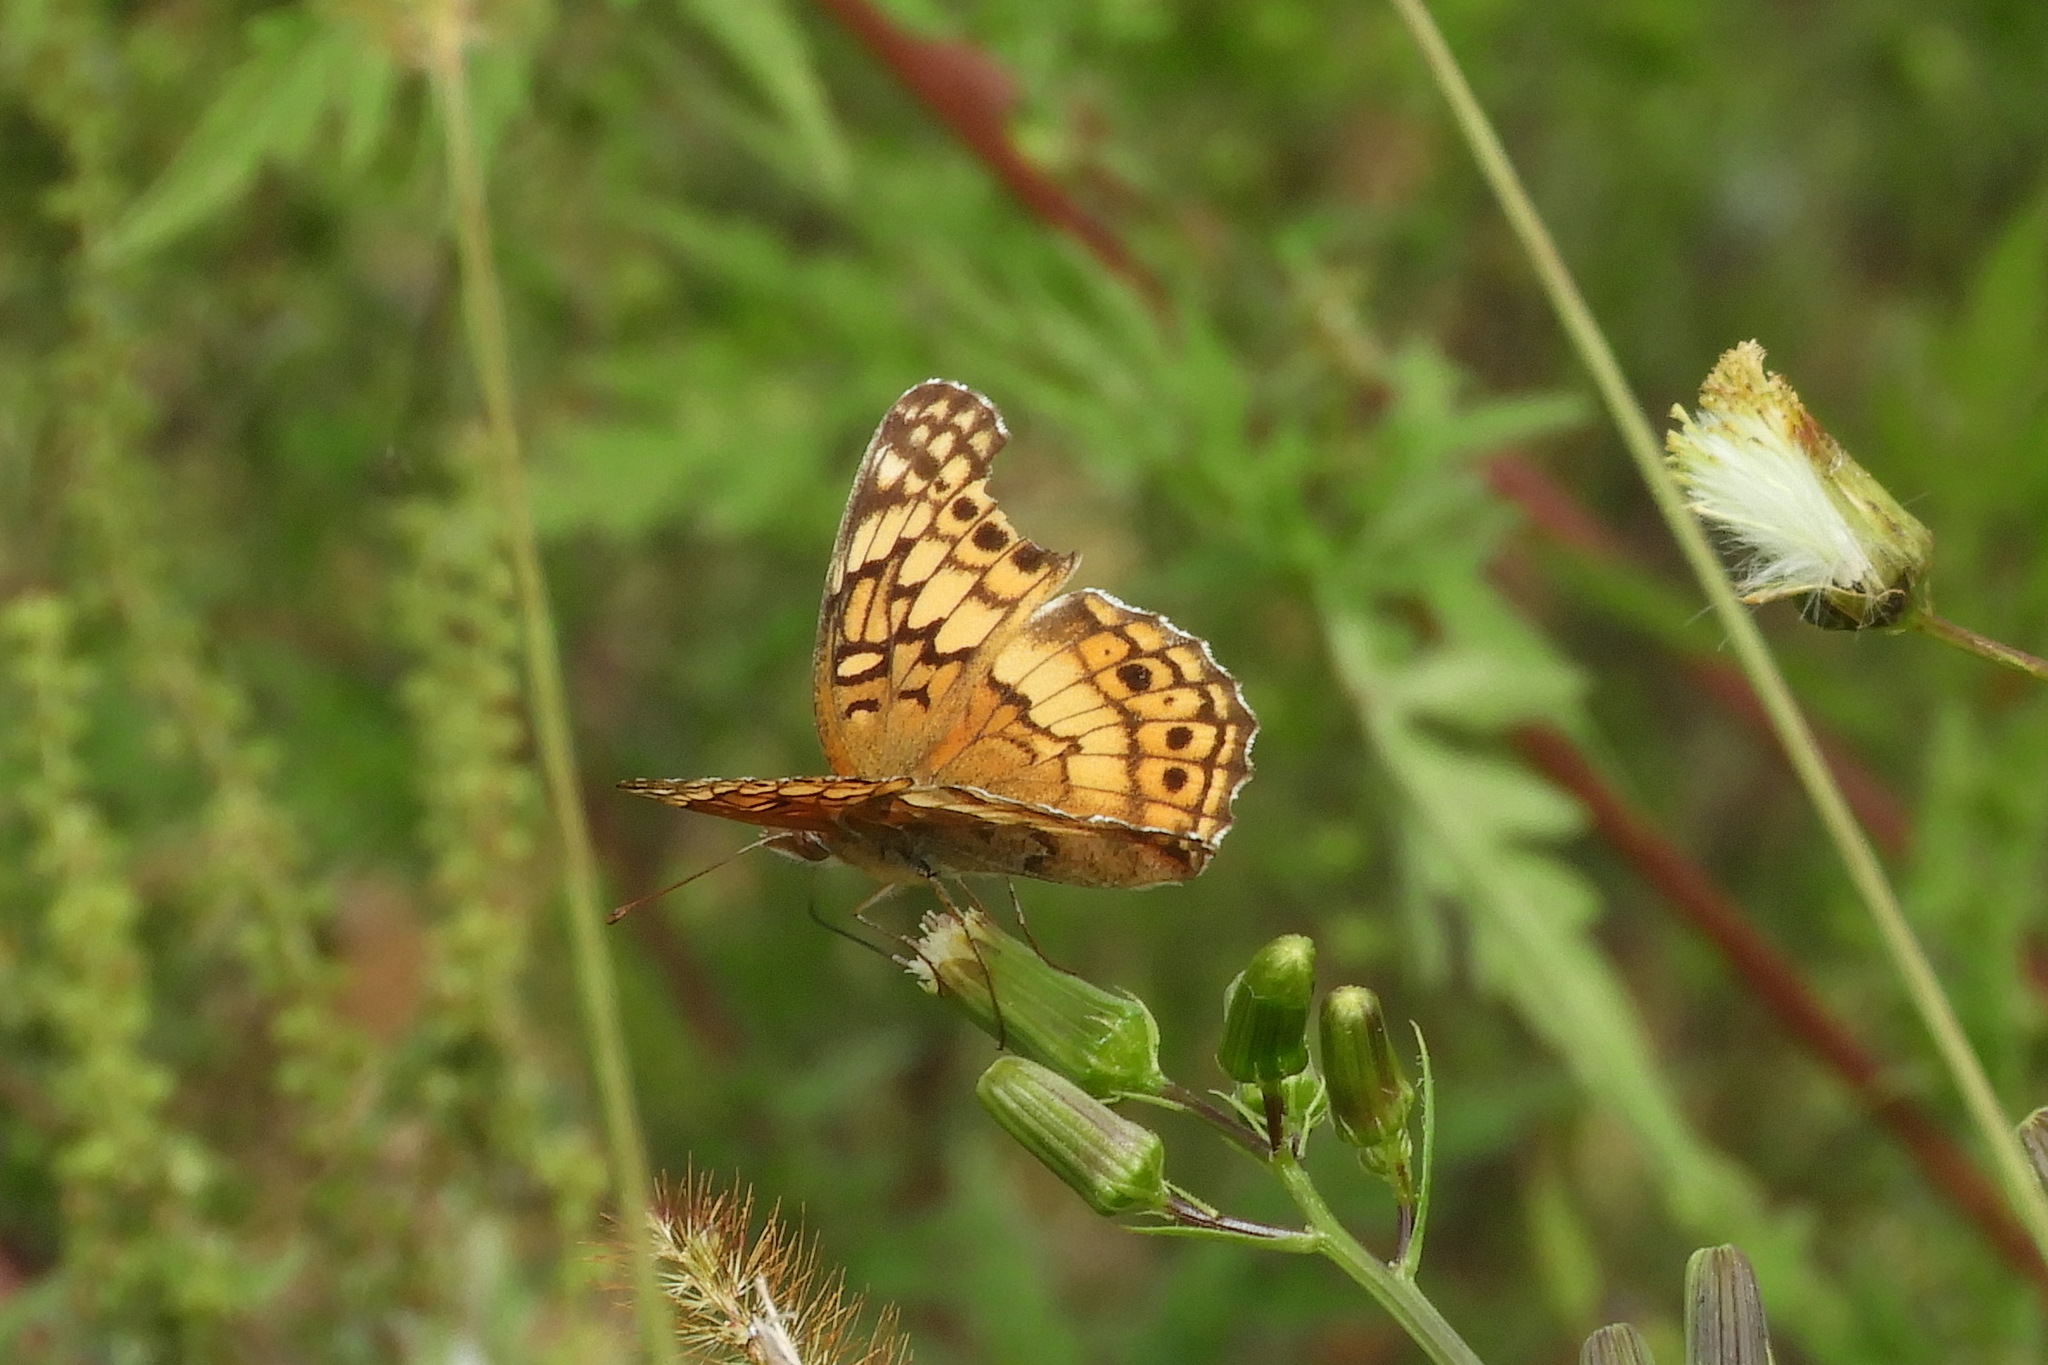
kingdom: Animalia
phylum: Arthropoda
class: Insecta
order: Lepidoptera
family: Nymphalidae
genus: Euptoieta
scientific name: Euptoieta claudia
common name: Variegated fritillary
